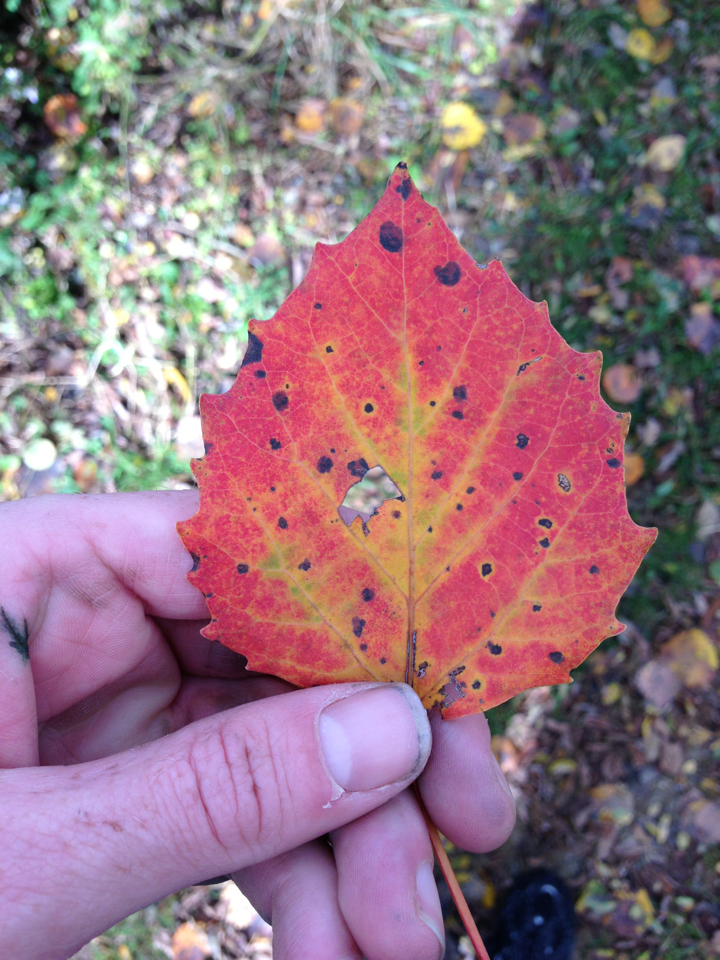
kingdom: Plantae
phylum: Tracheophyta
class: Magnoliopsida
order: Malpighiales
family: Salicaceae
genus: Populus
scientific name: Populus grandidentata
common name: Bigtooth aspen
